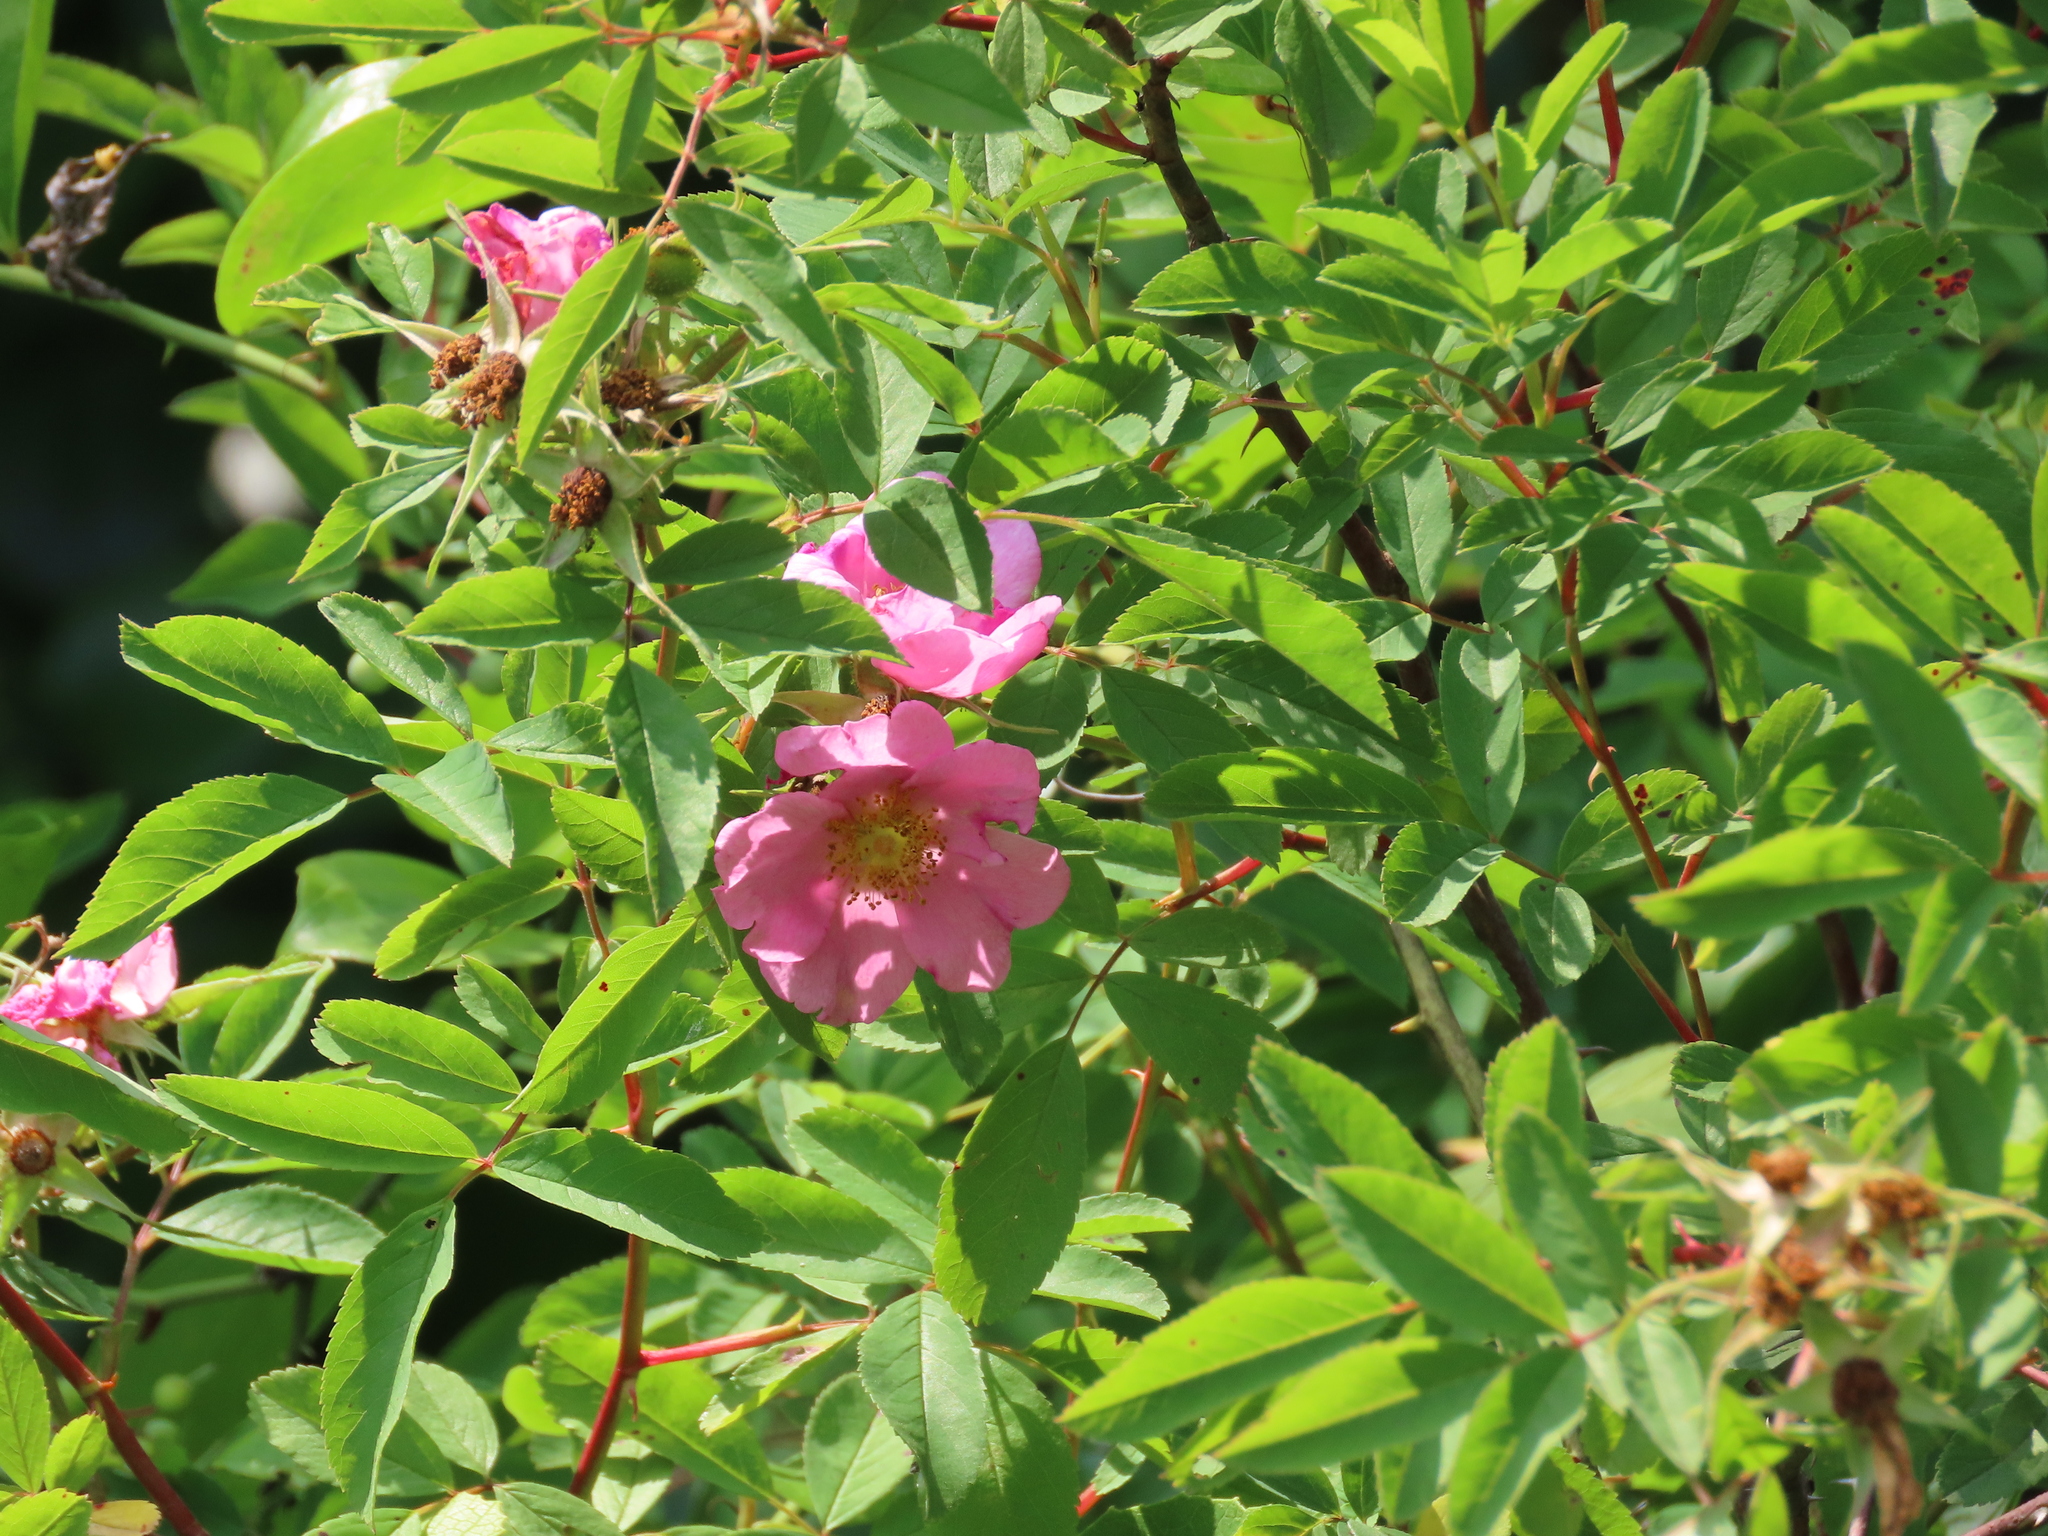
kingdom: Plantae
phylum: Tracheophyta
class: Magnoliopsida
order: Rosales
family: Rosaceae
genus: Rosa
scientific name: Rosa palustris
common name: Swamp rose
